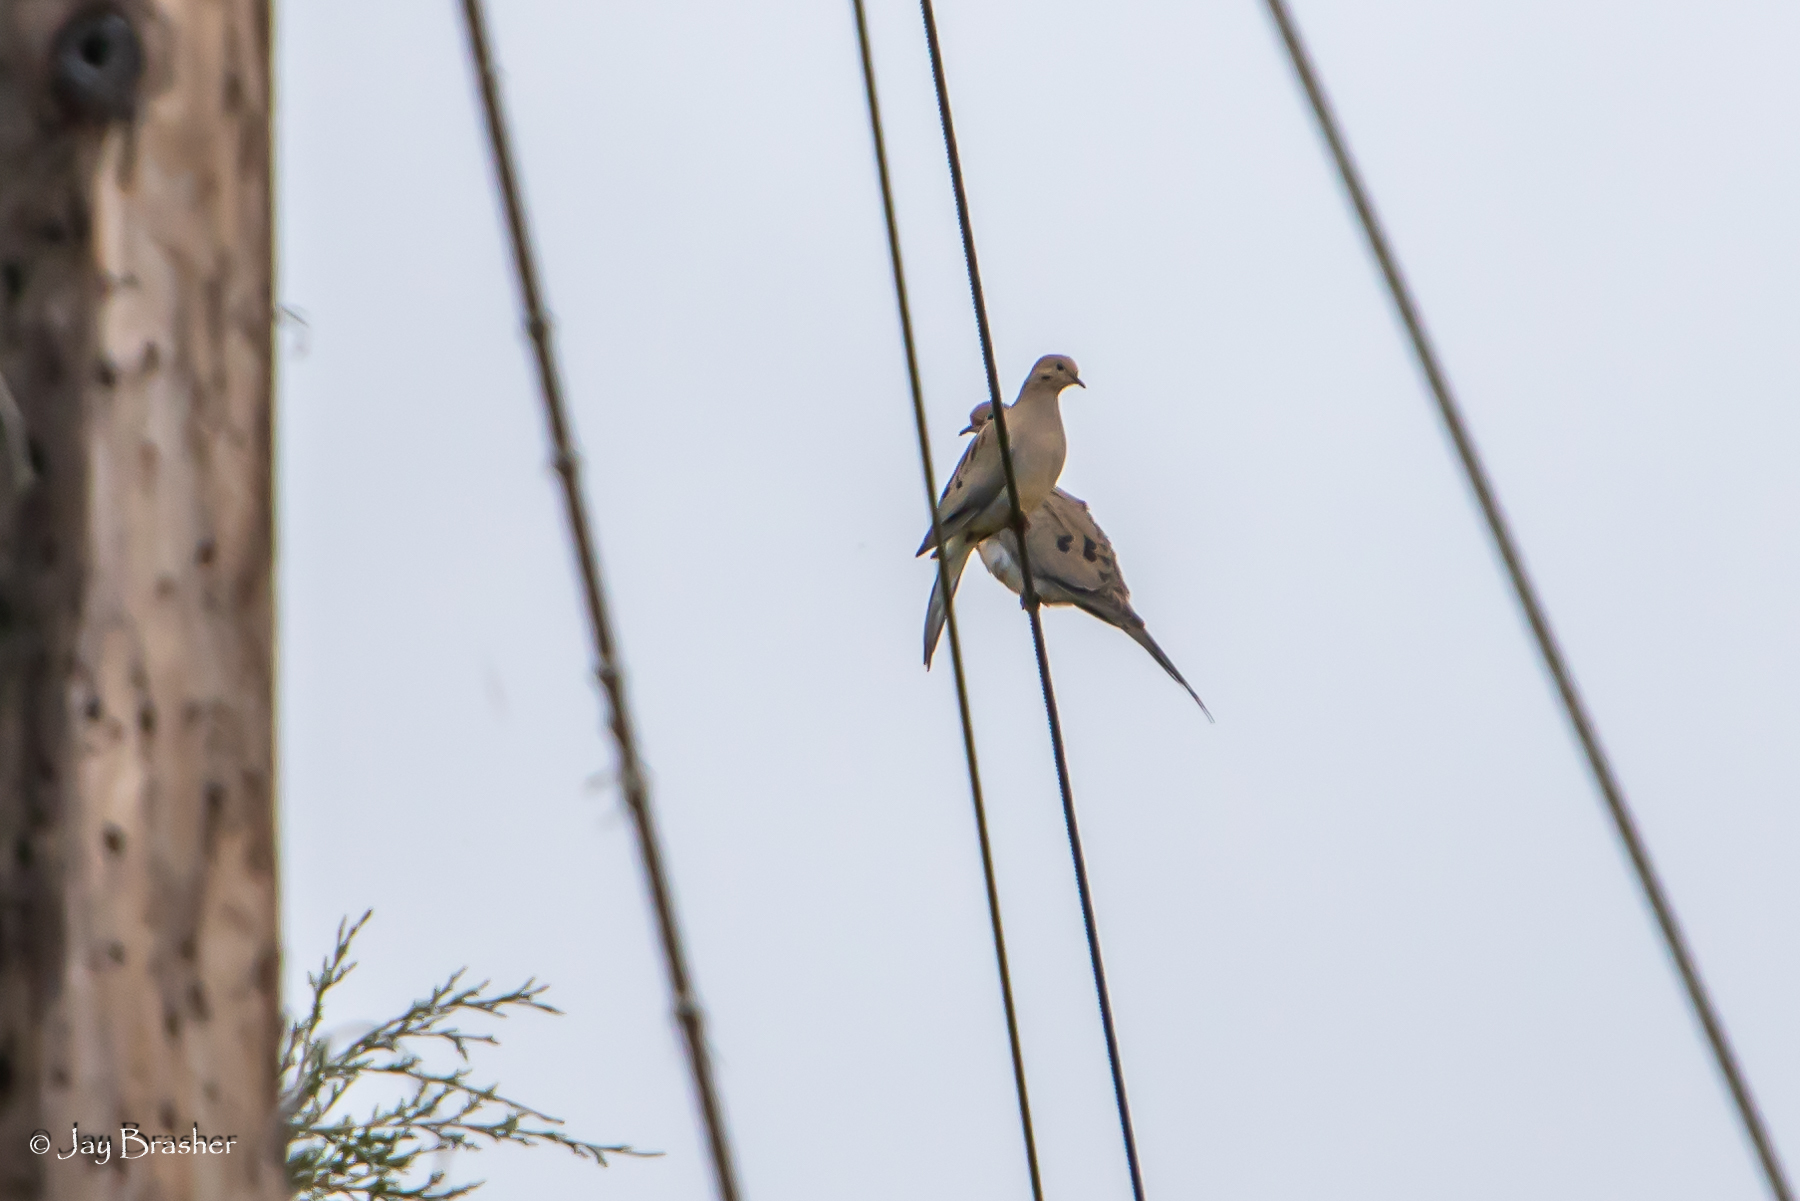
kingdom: Animalia
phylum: Chordata
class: Aves
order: Columbiformes
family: Columbidae
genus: Zenaida
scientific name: Zenaida macroura
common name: Mourning dove
